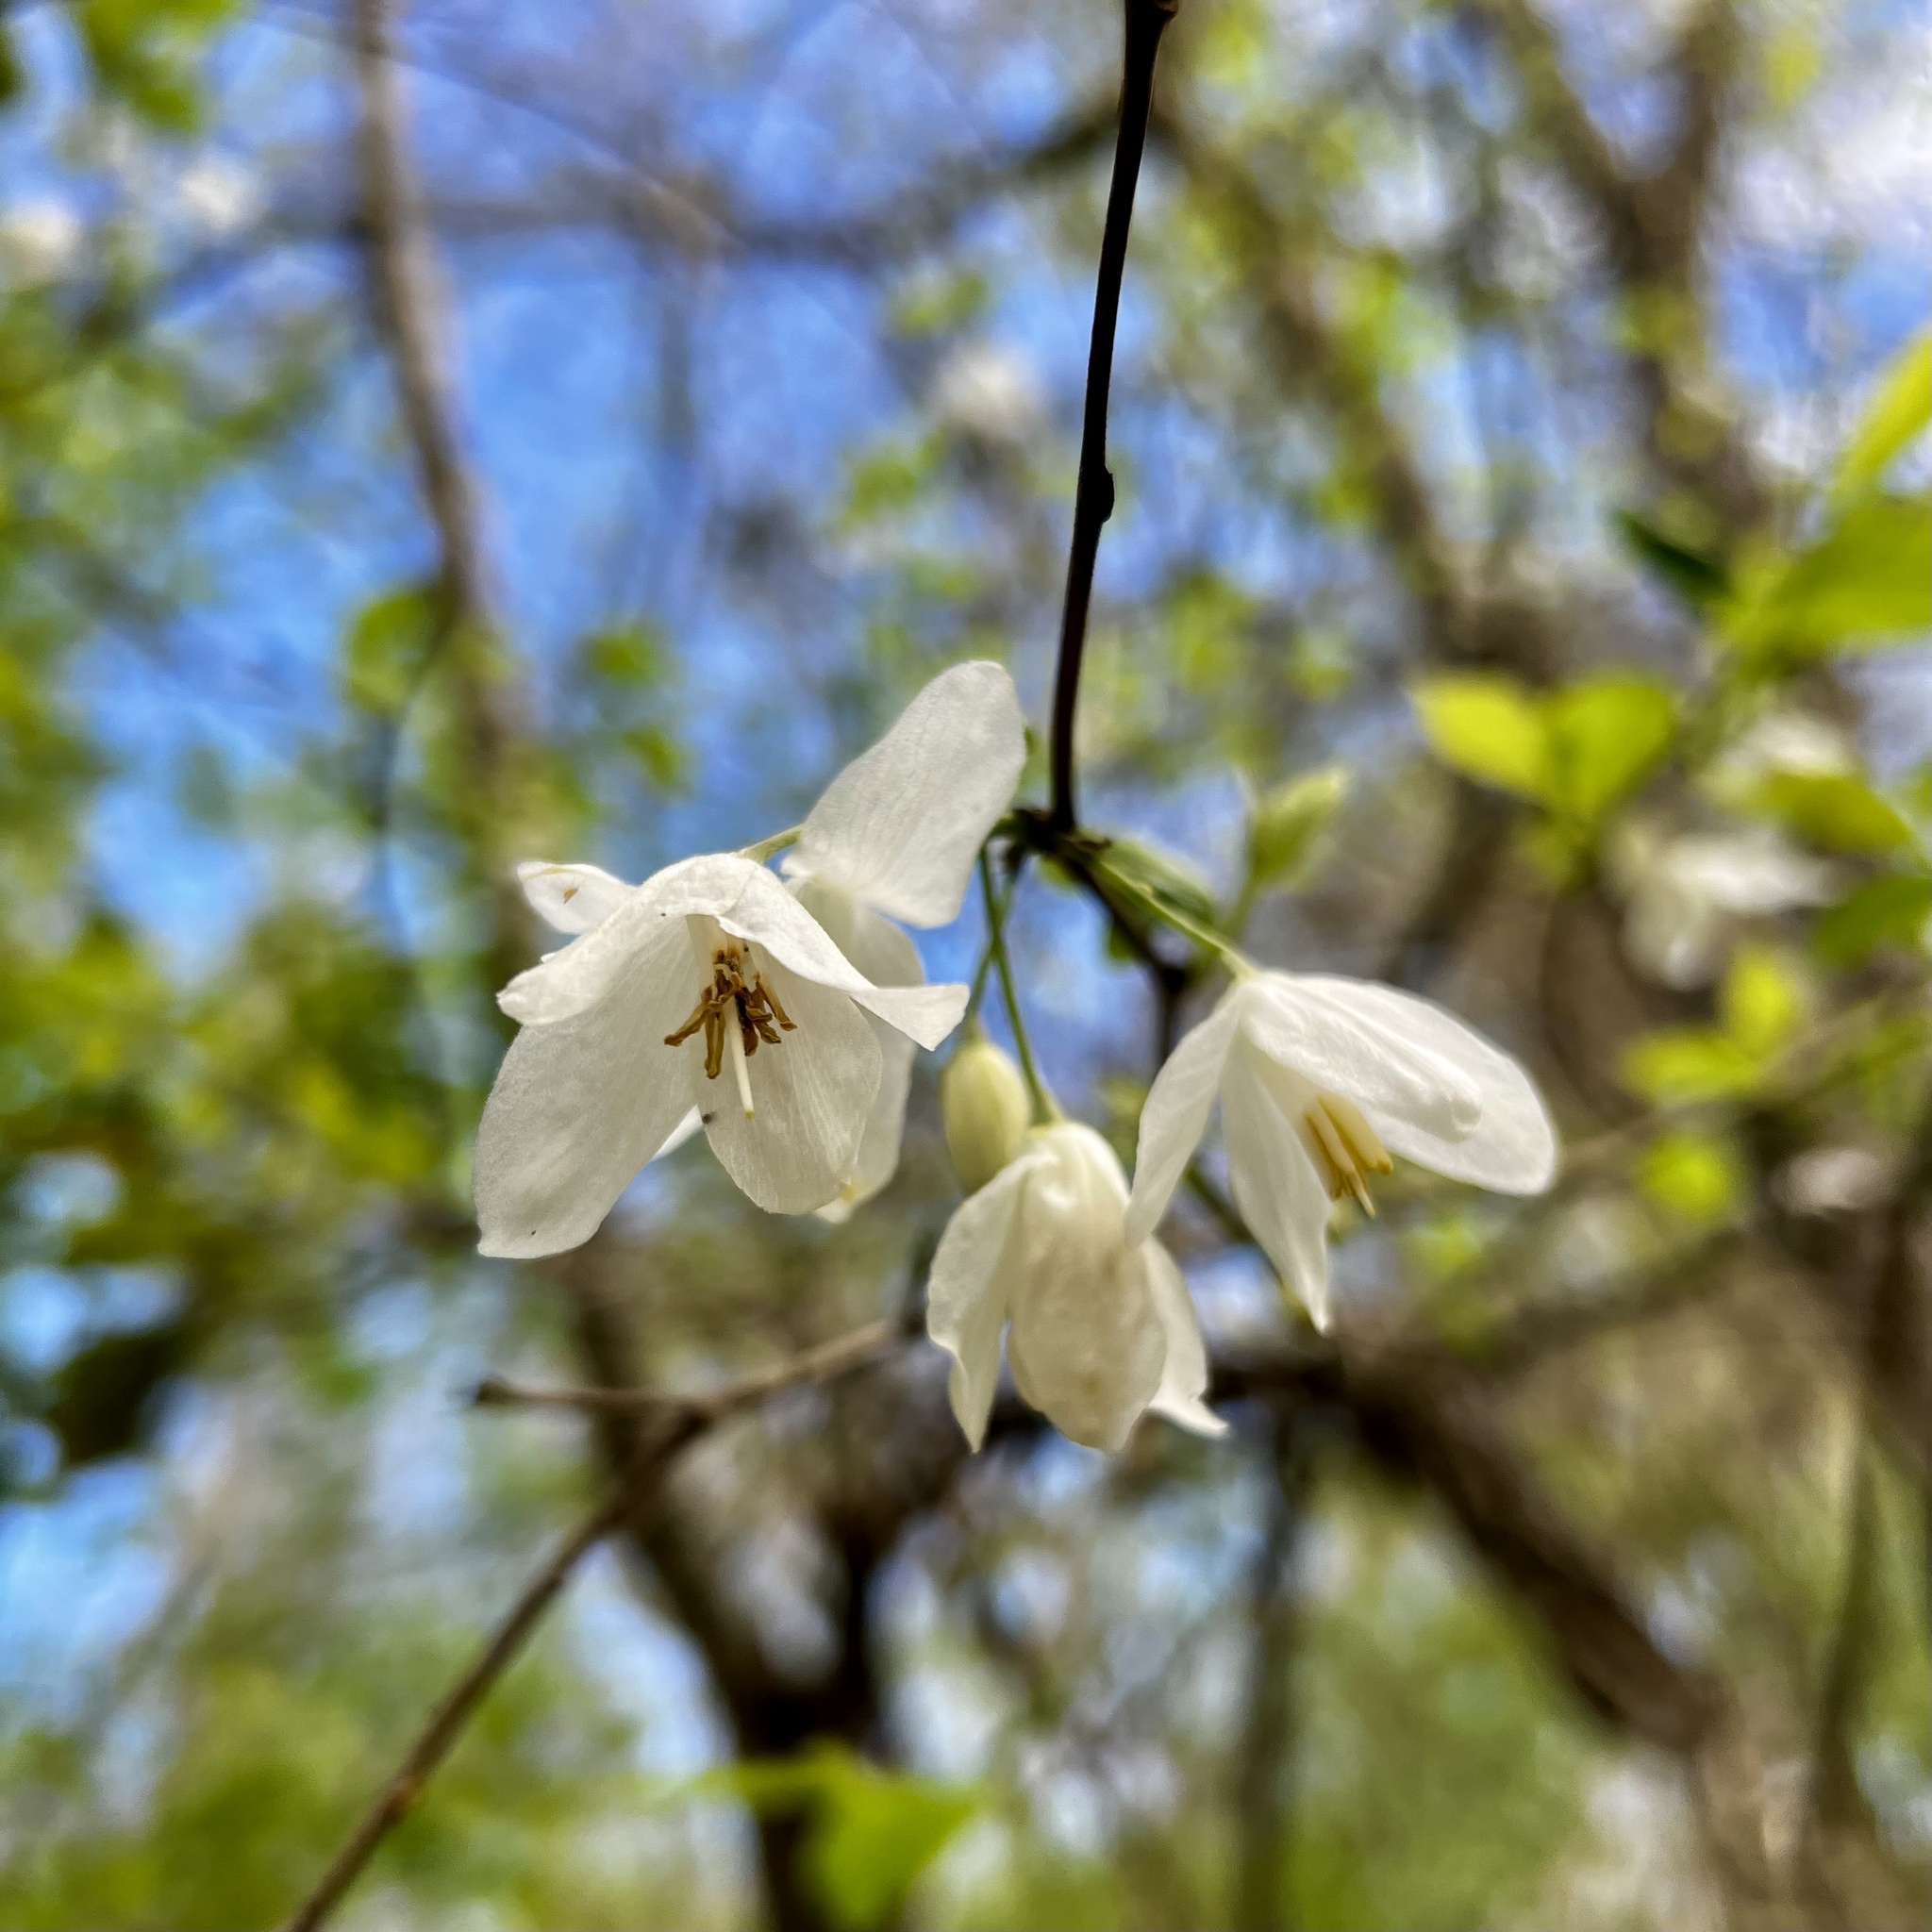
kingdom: Plantae
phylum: Tracheophyta
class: Magnoliopsida
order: Ericales
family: Styracaceae
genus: Halesia
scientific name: Halesia diptera
